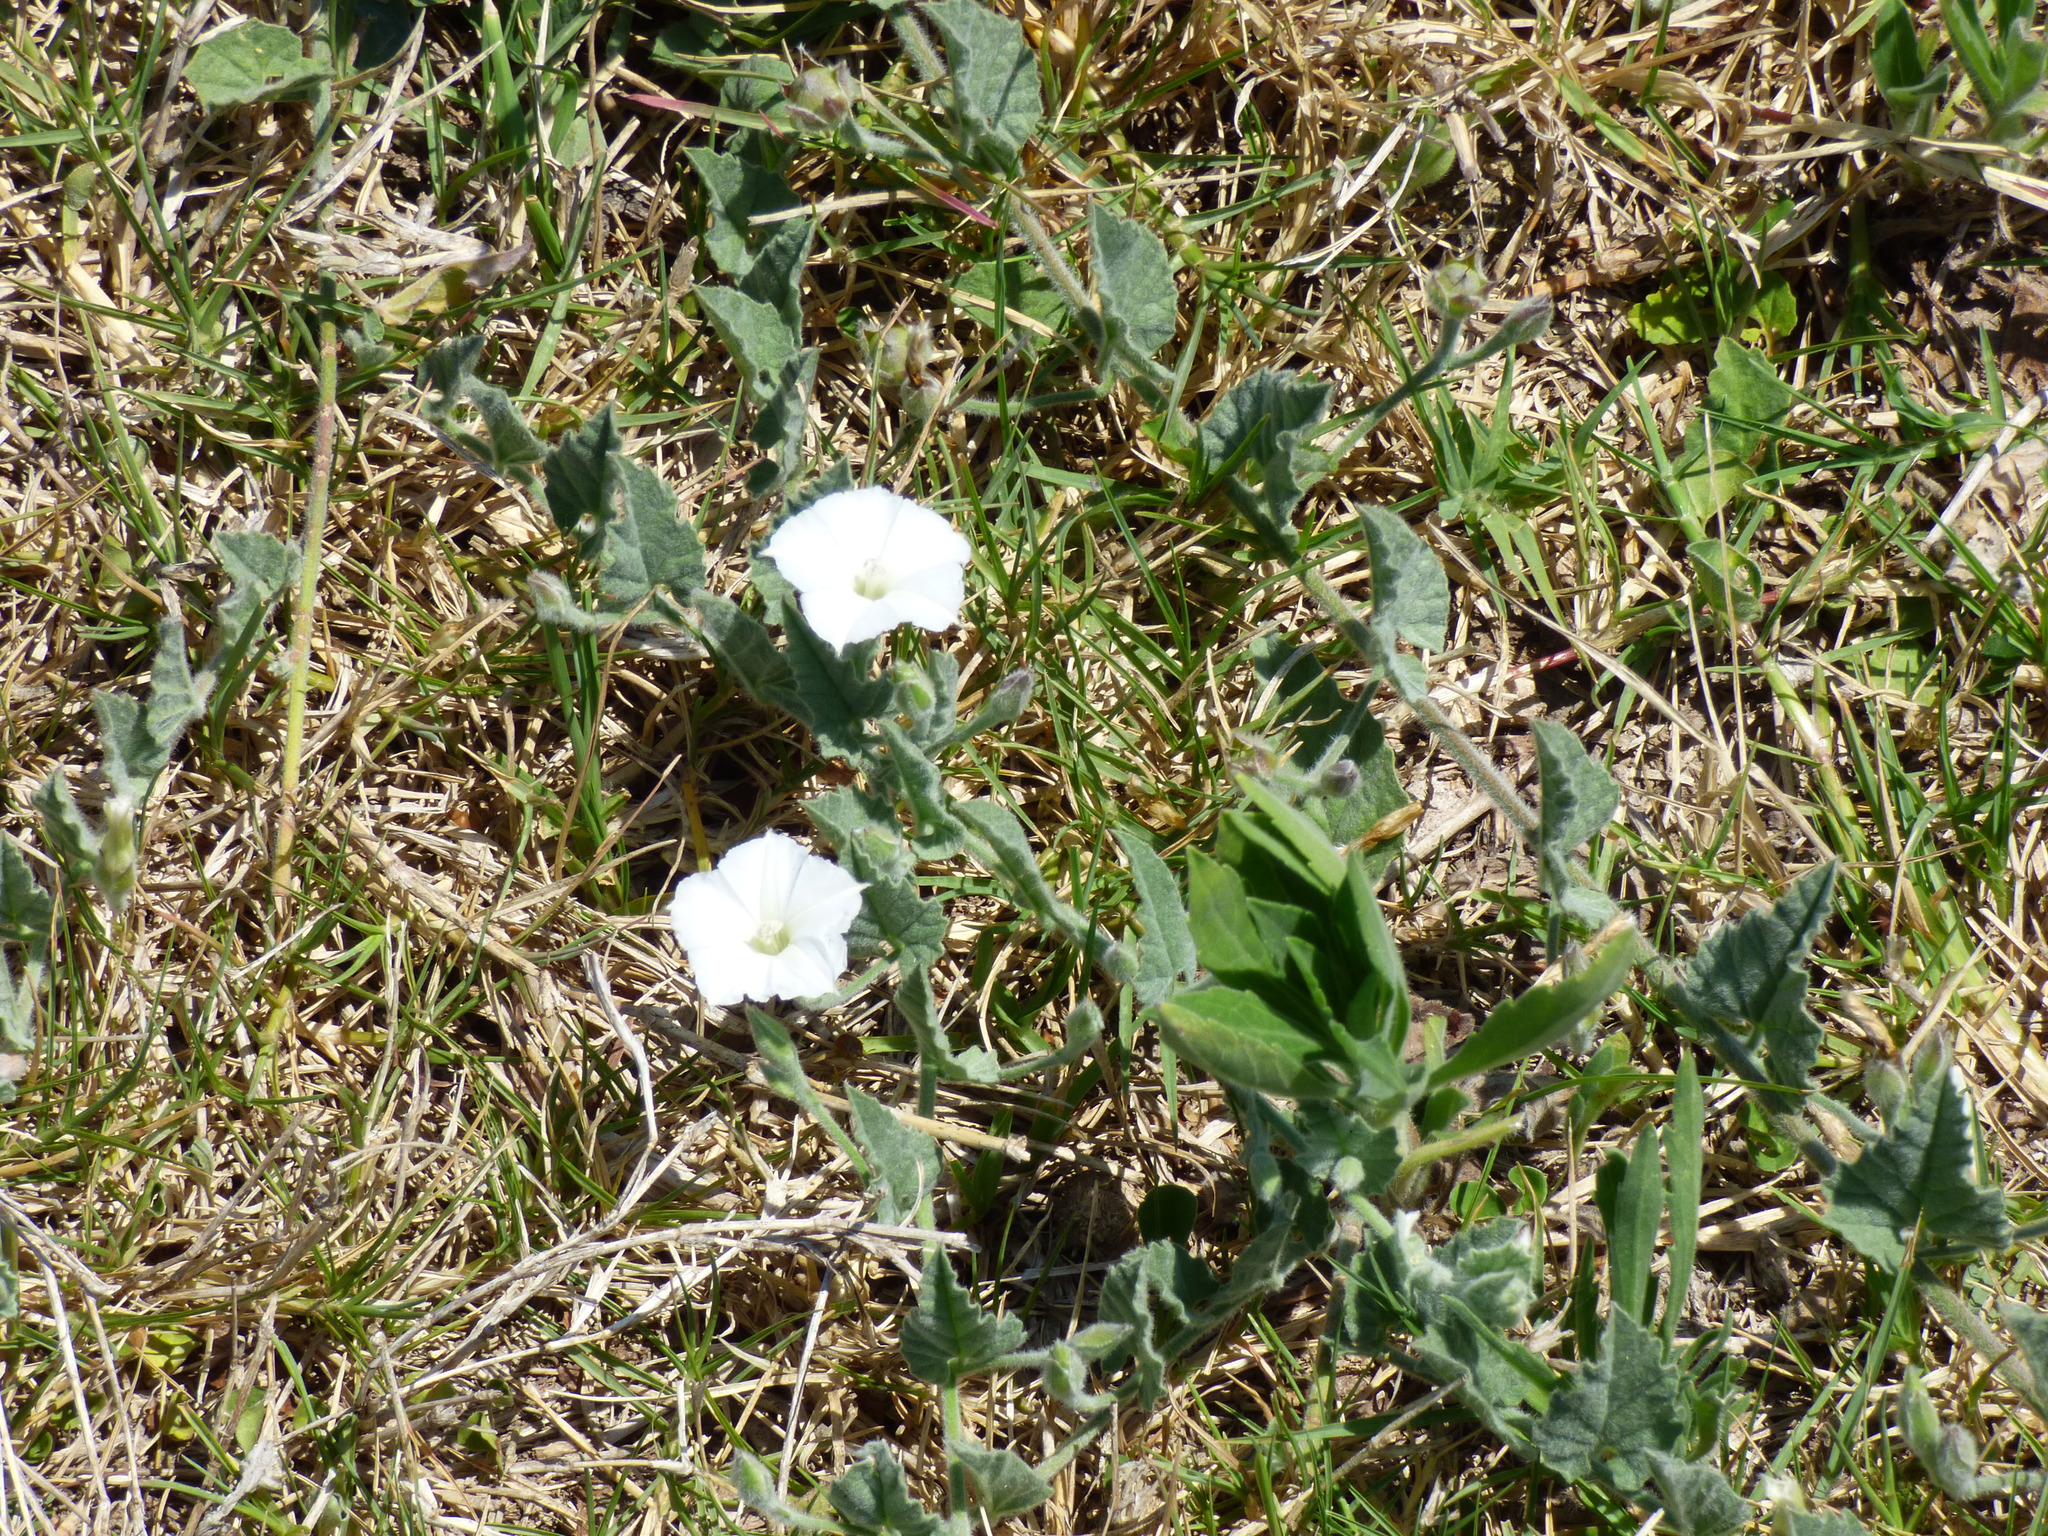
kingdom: Plantae
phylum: Tracheophyta
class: Magnoliopsida
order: Solanales
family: Convolvulaceae
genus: Convolvulus
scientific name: Convolvulus hermanniae
